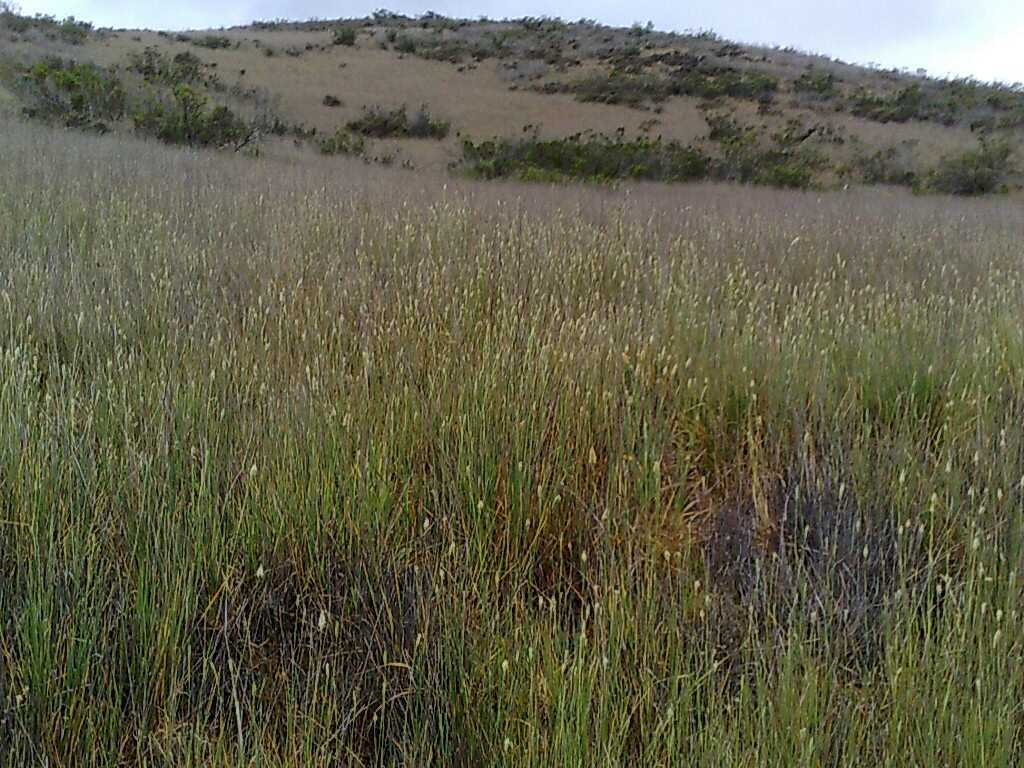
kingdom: Plantae
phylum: Tracheophyta
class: Liliopsida
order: Poales
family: Poaceae
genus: Phalaris
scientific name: Phalaris aquatica
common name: Bulbous canary-grass
